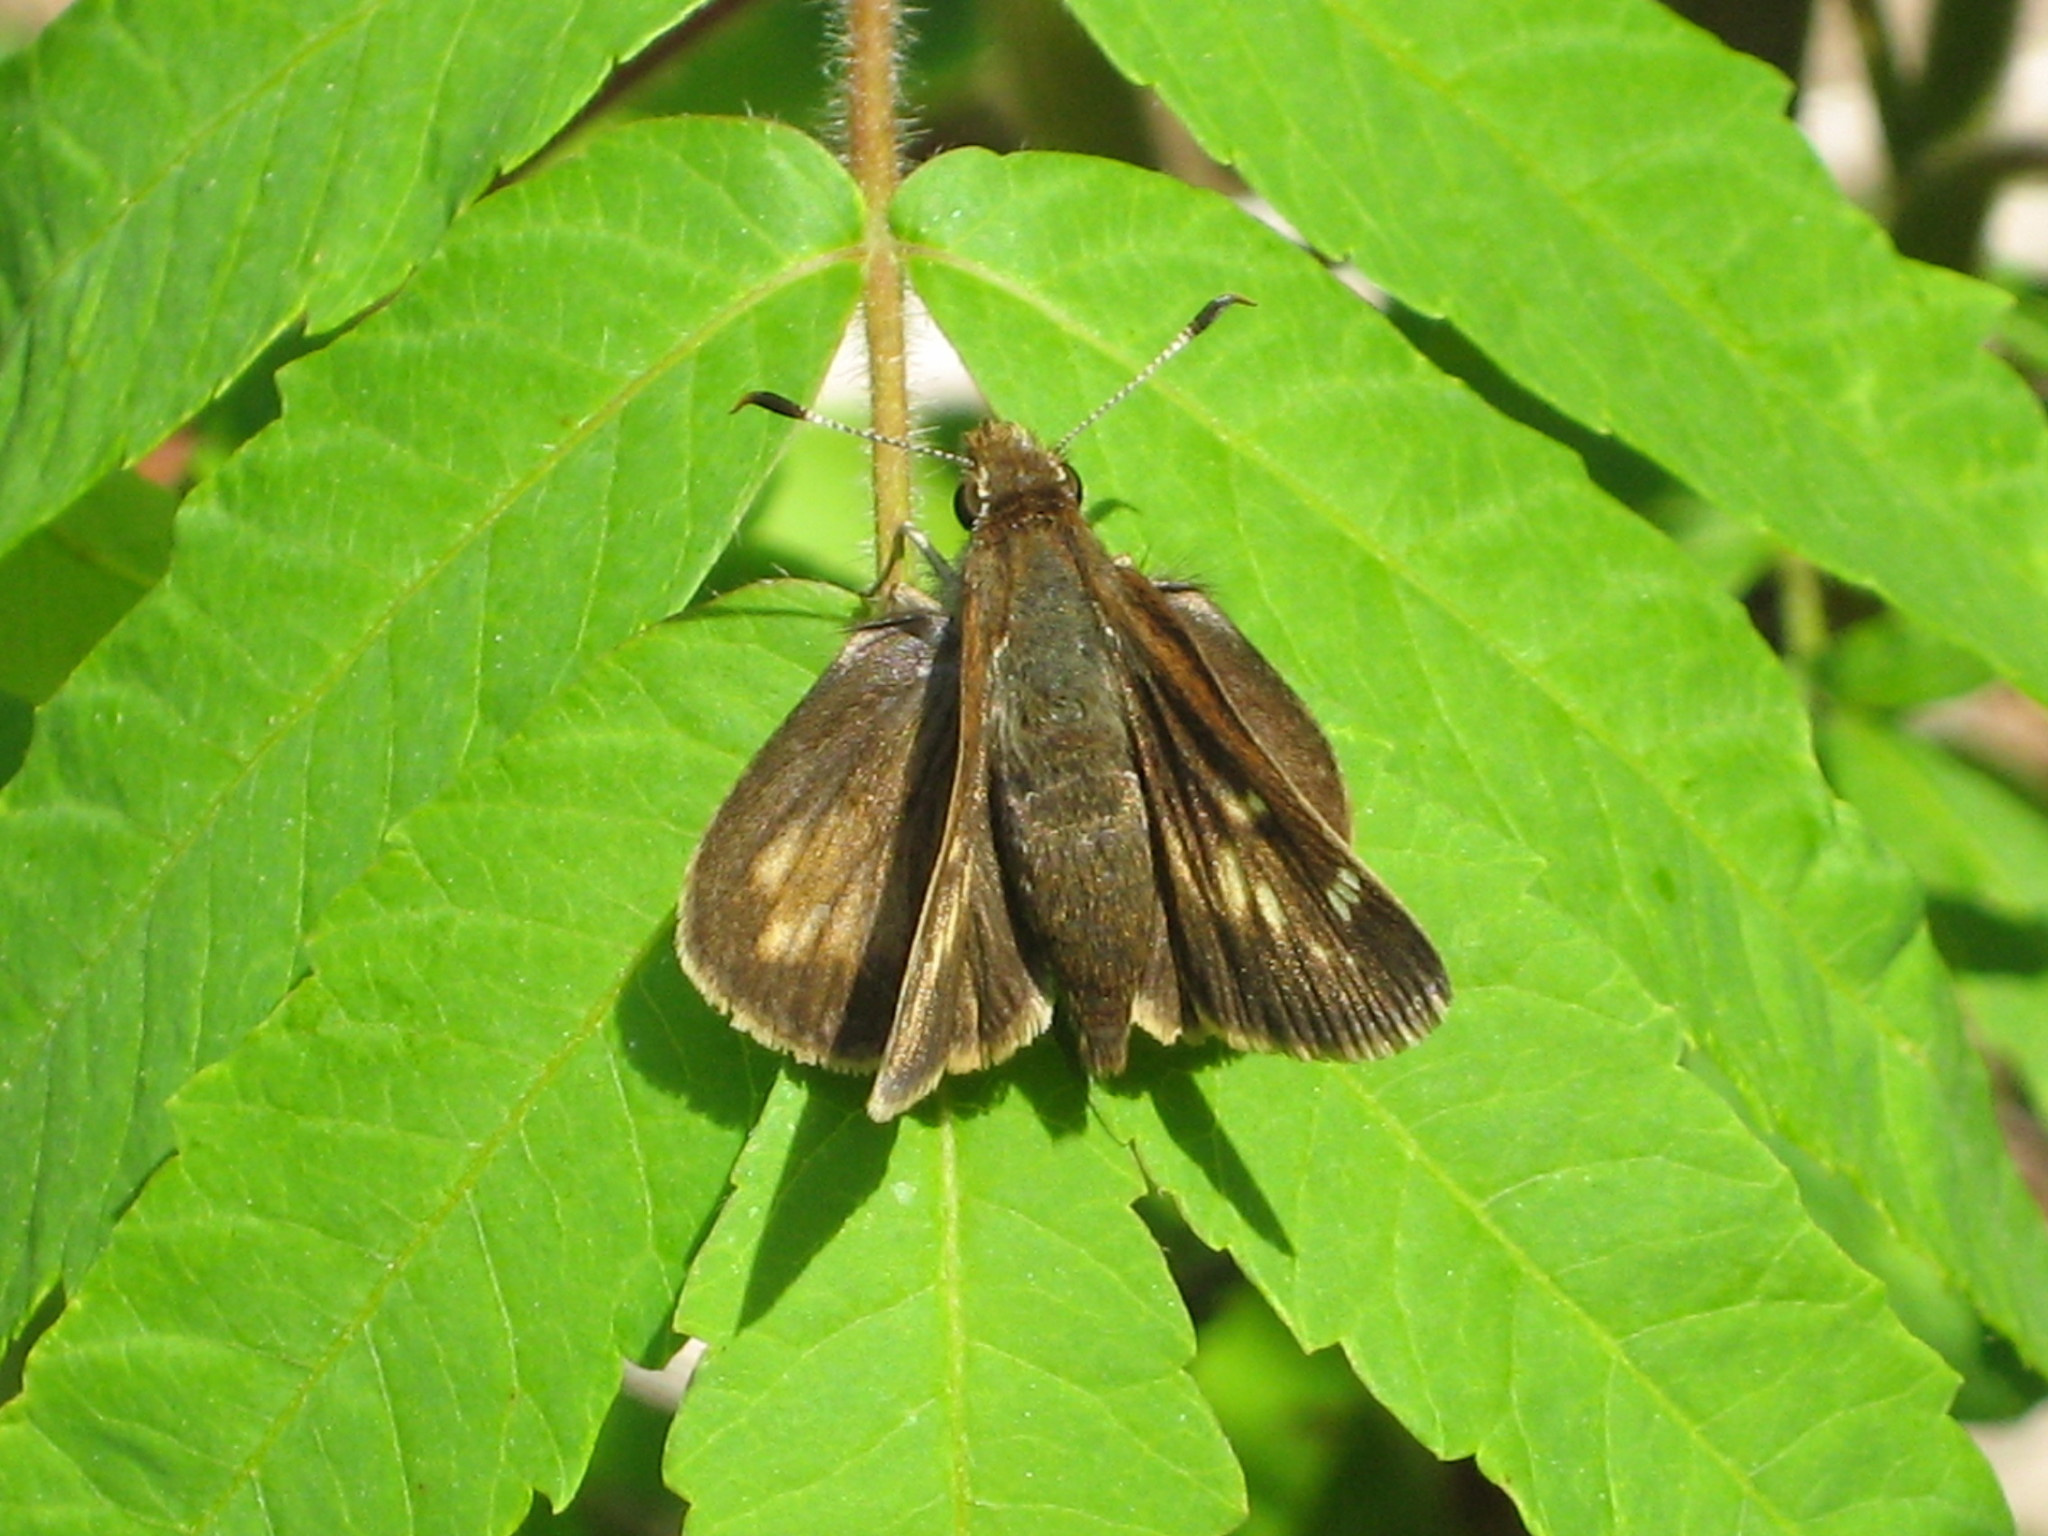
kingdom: Animalia
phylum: Arthropoda
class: Insecta
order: Lepidoptera
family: Hesperiidae
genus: Lon
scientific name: Lon hobomok
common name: Hobomok skipper
